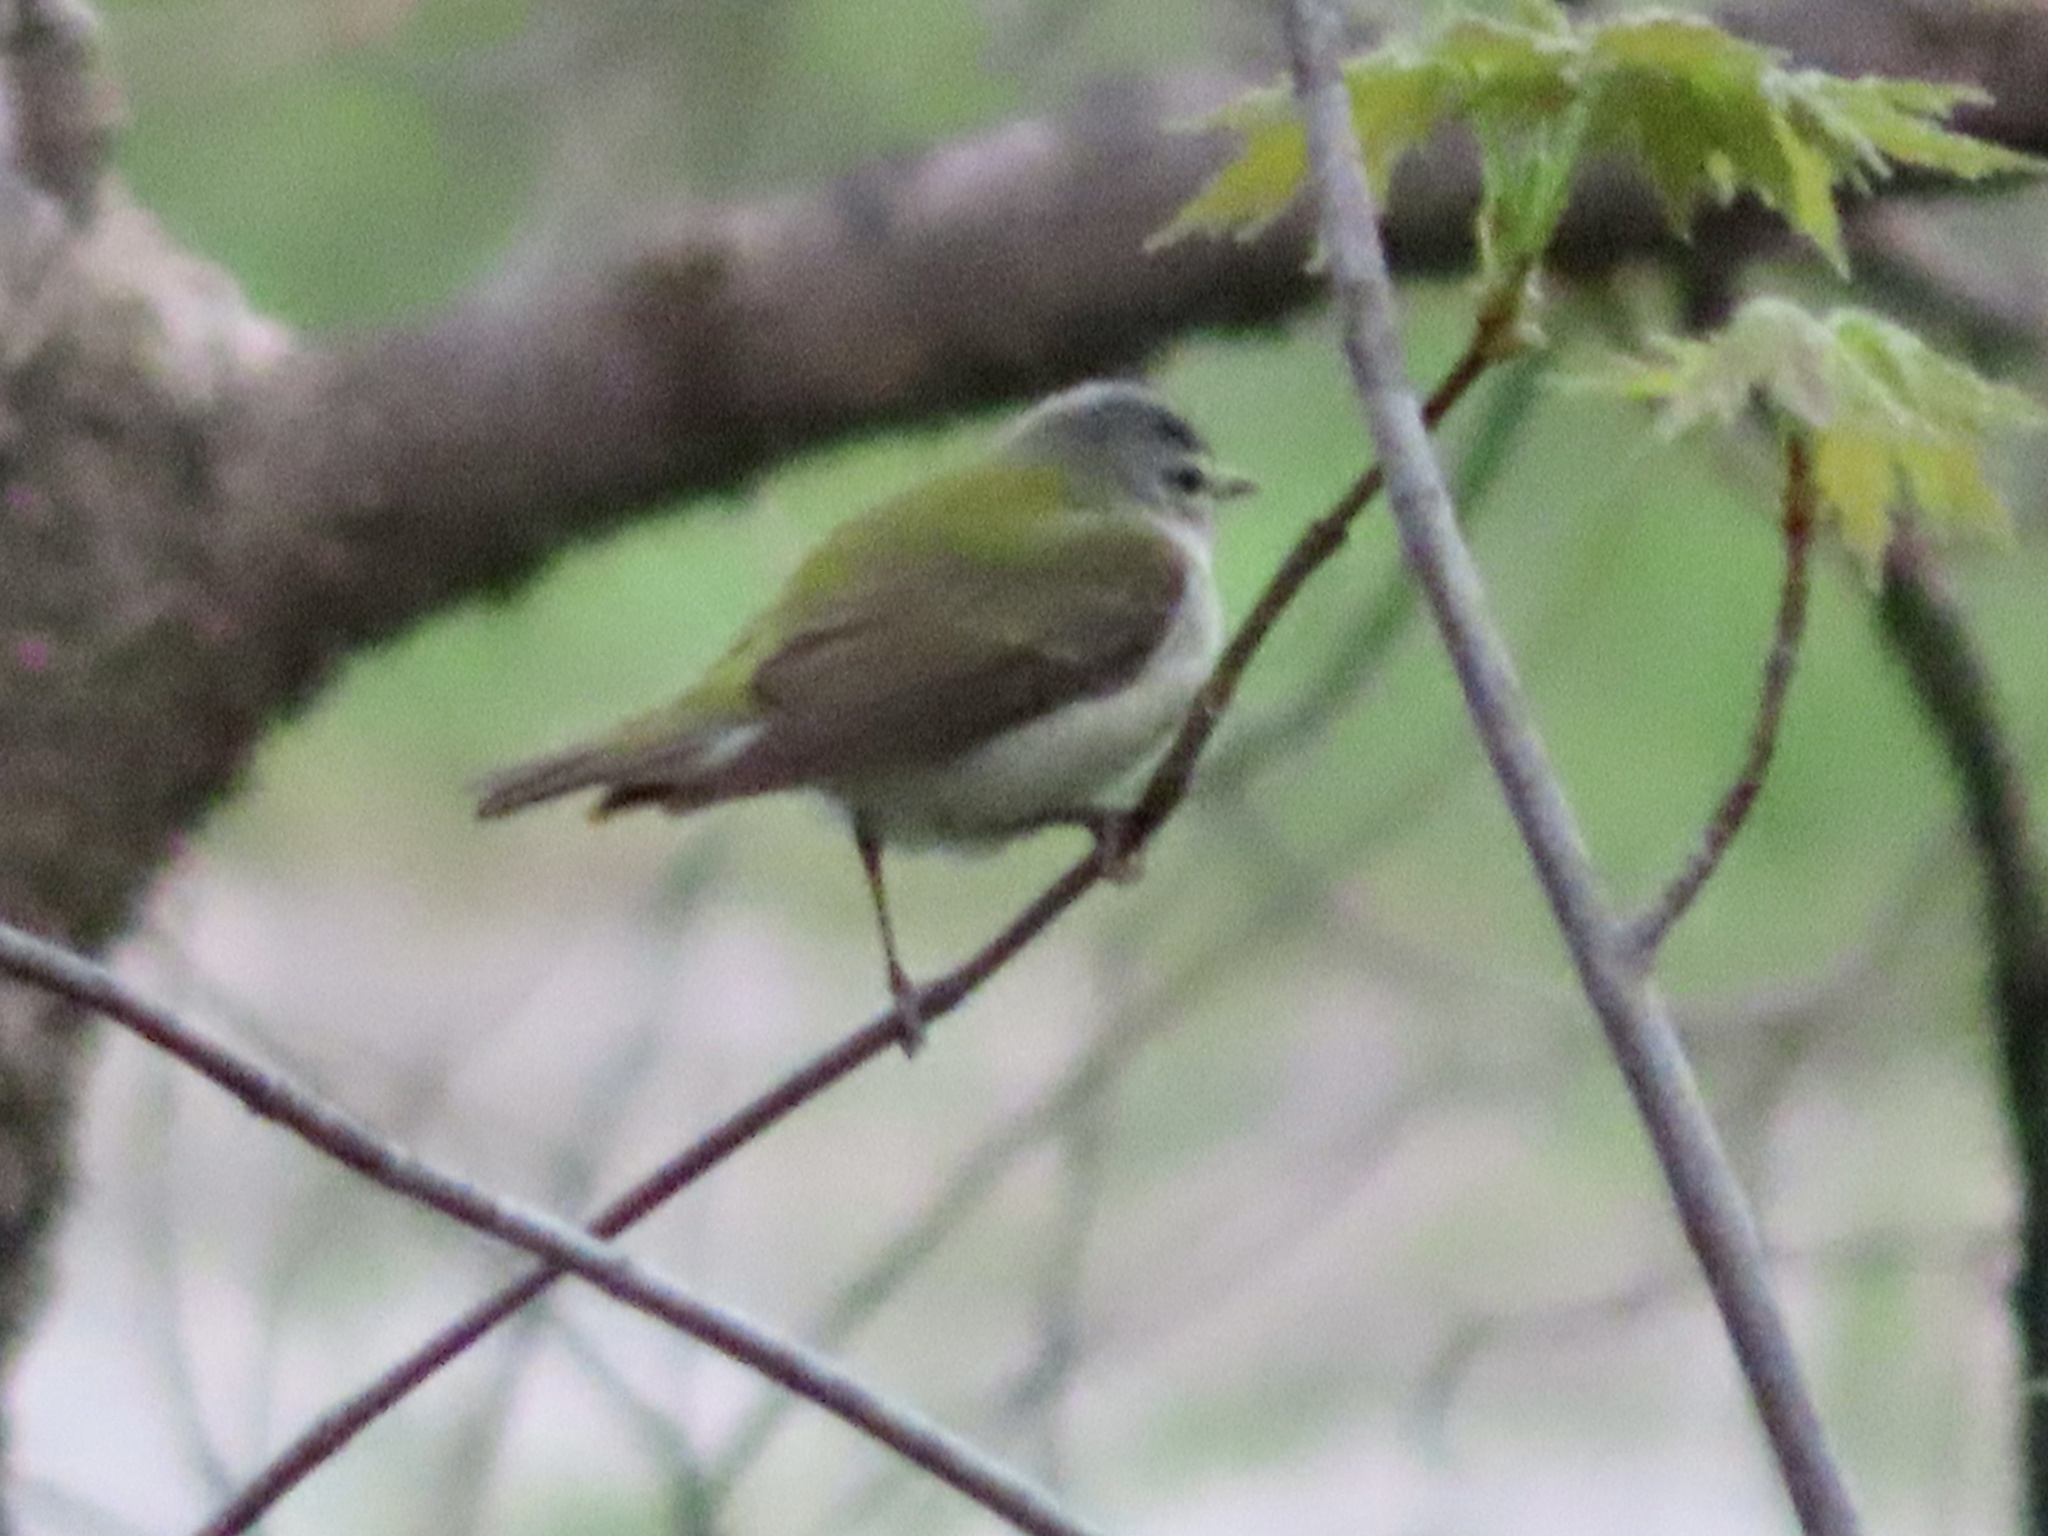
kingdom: Animalia
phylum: Chordata
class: Aves
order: Passeriformes
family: Parulidae
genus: Leiothlypis
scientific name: Leiothlypis peregrina
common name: Tennessee warbler
